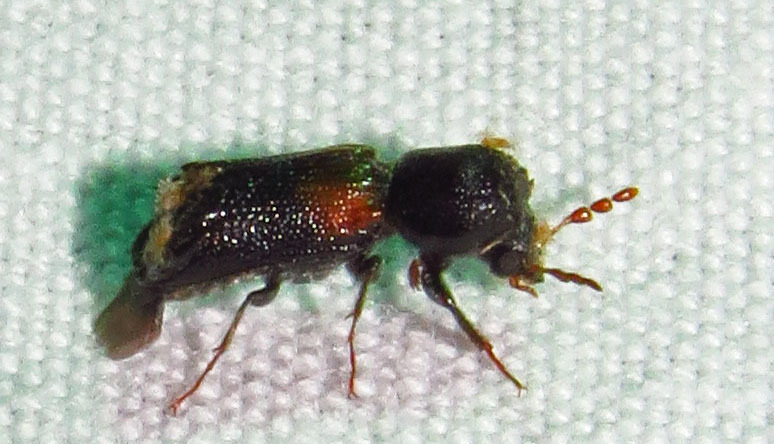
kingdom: Animalia
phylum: Arthropoda
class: Insecta
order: Coleoptera
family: Bostrichidae
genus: Xylobiops
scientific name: Xylobiops basilaris
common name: Red-shouldered bostrichid
